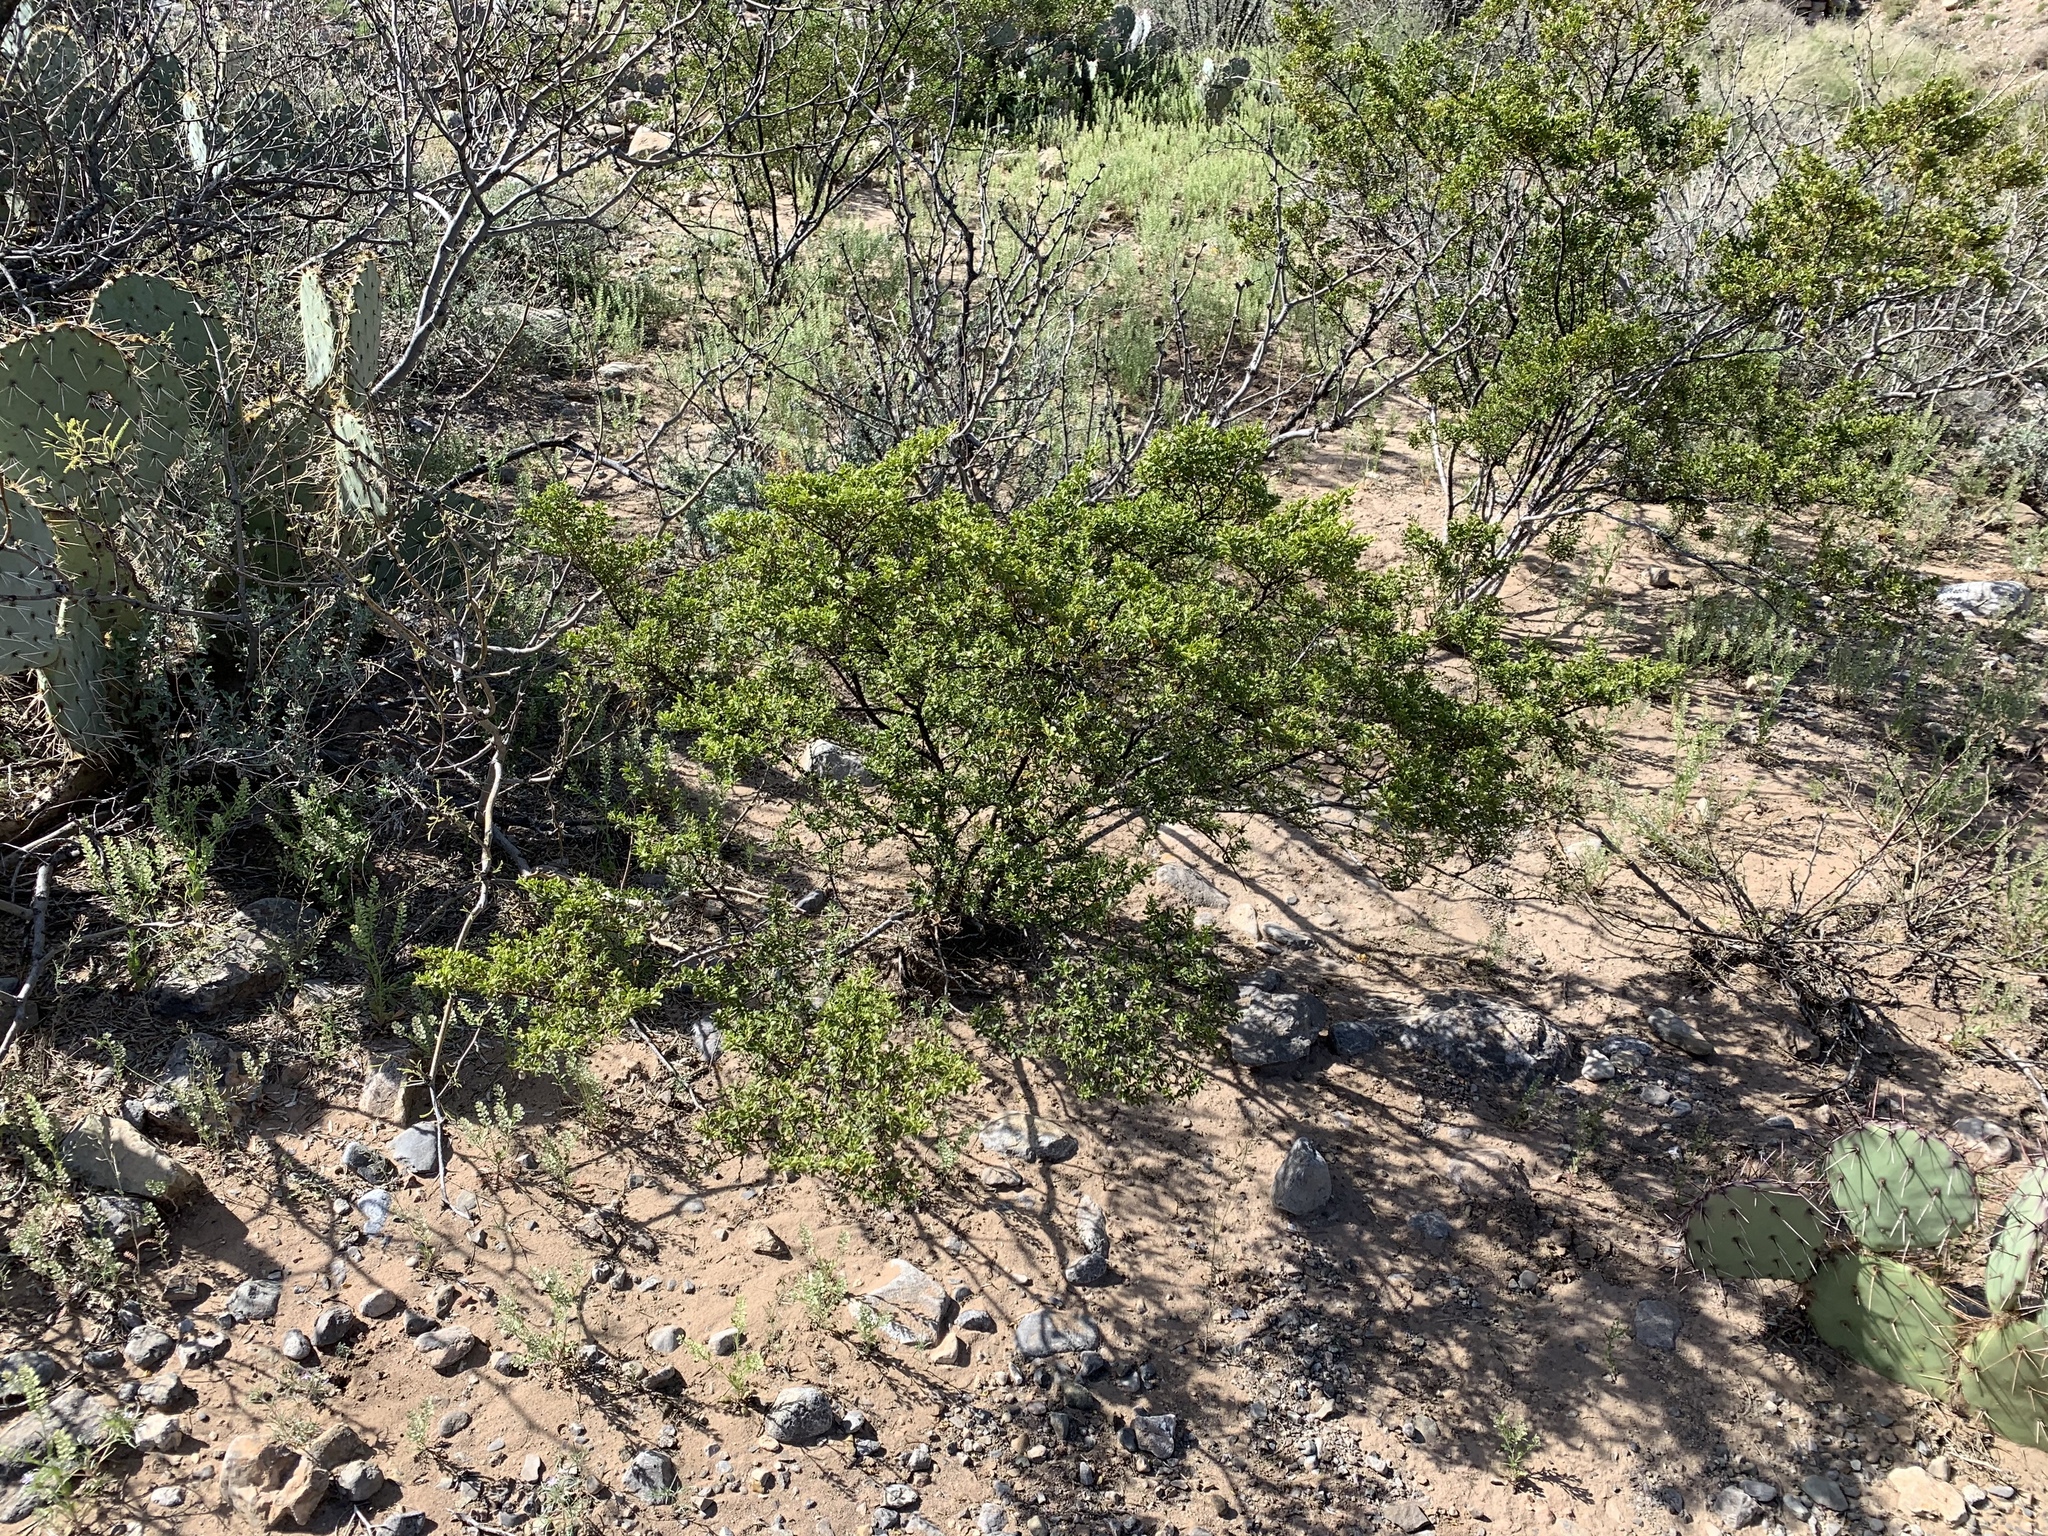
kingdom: Plantae
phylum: Tracheophyta
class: Magnoliopsida
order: Zygophyllales
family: Zygophyllaceae
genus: Larrea
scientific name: Larrea tridentata
